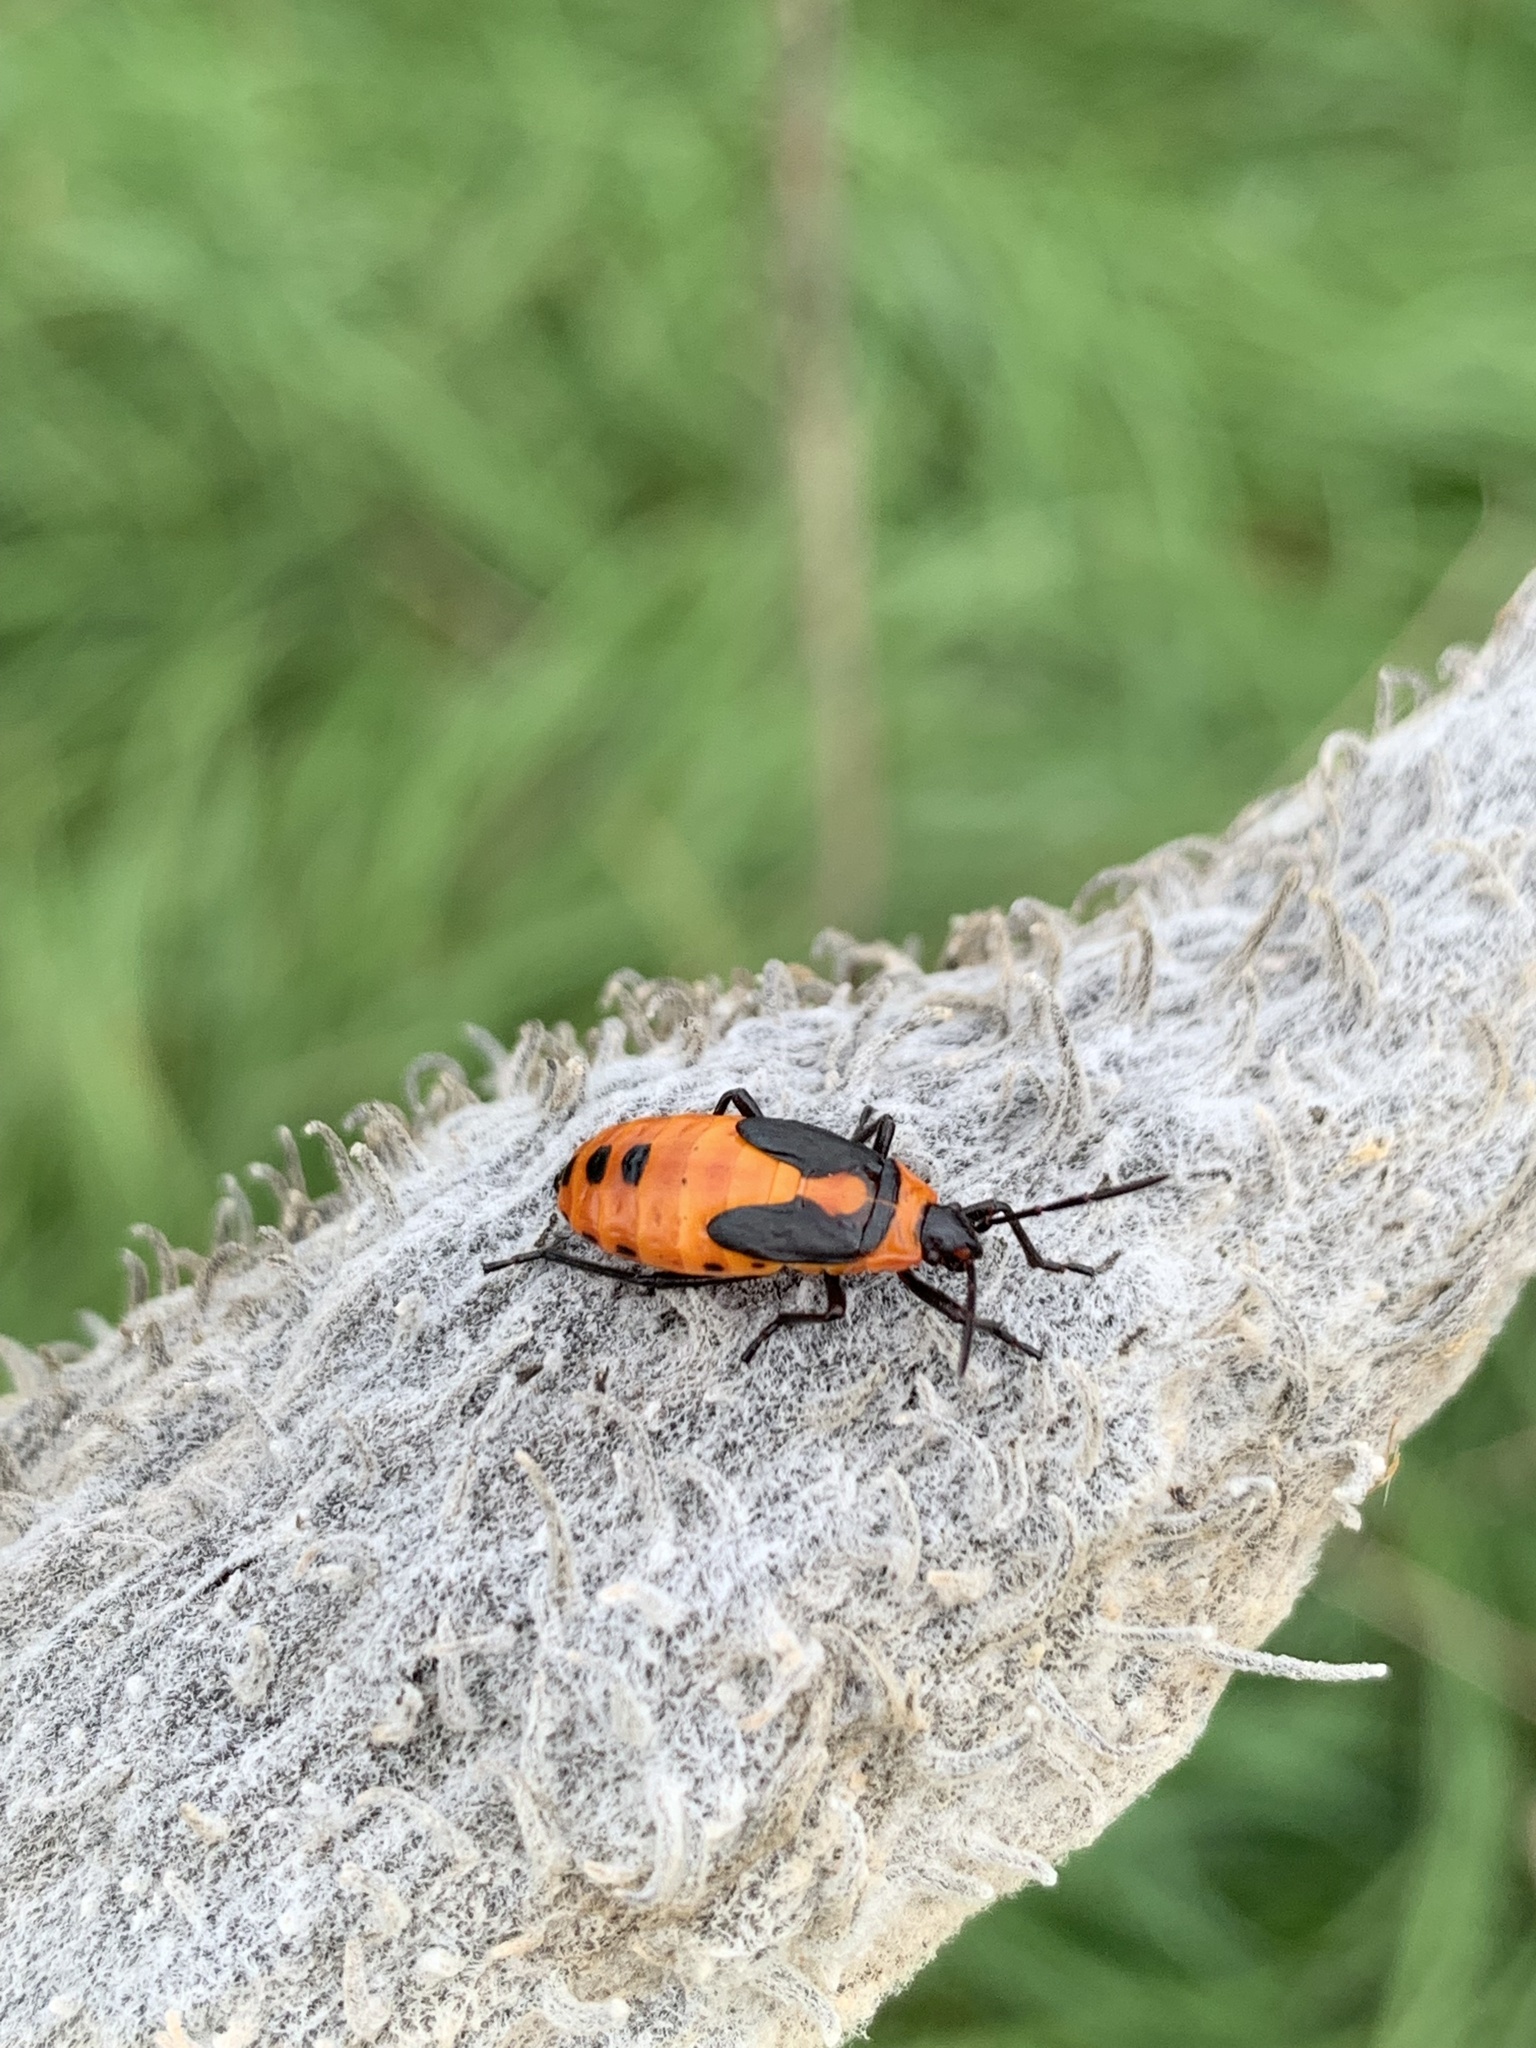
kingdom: Animalia
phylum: Arthropoda
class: Insecta
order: Hemiptera
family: Lygaeidae
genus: Oncopeltus
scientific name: Oncopeltus fasciatus
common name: Large milkweed bug
